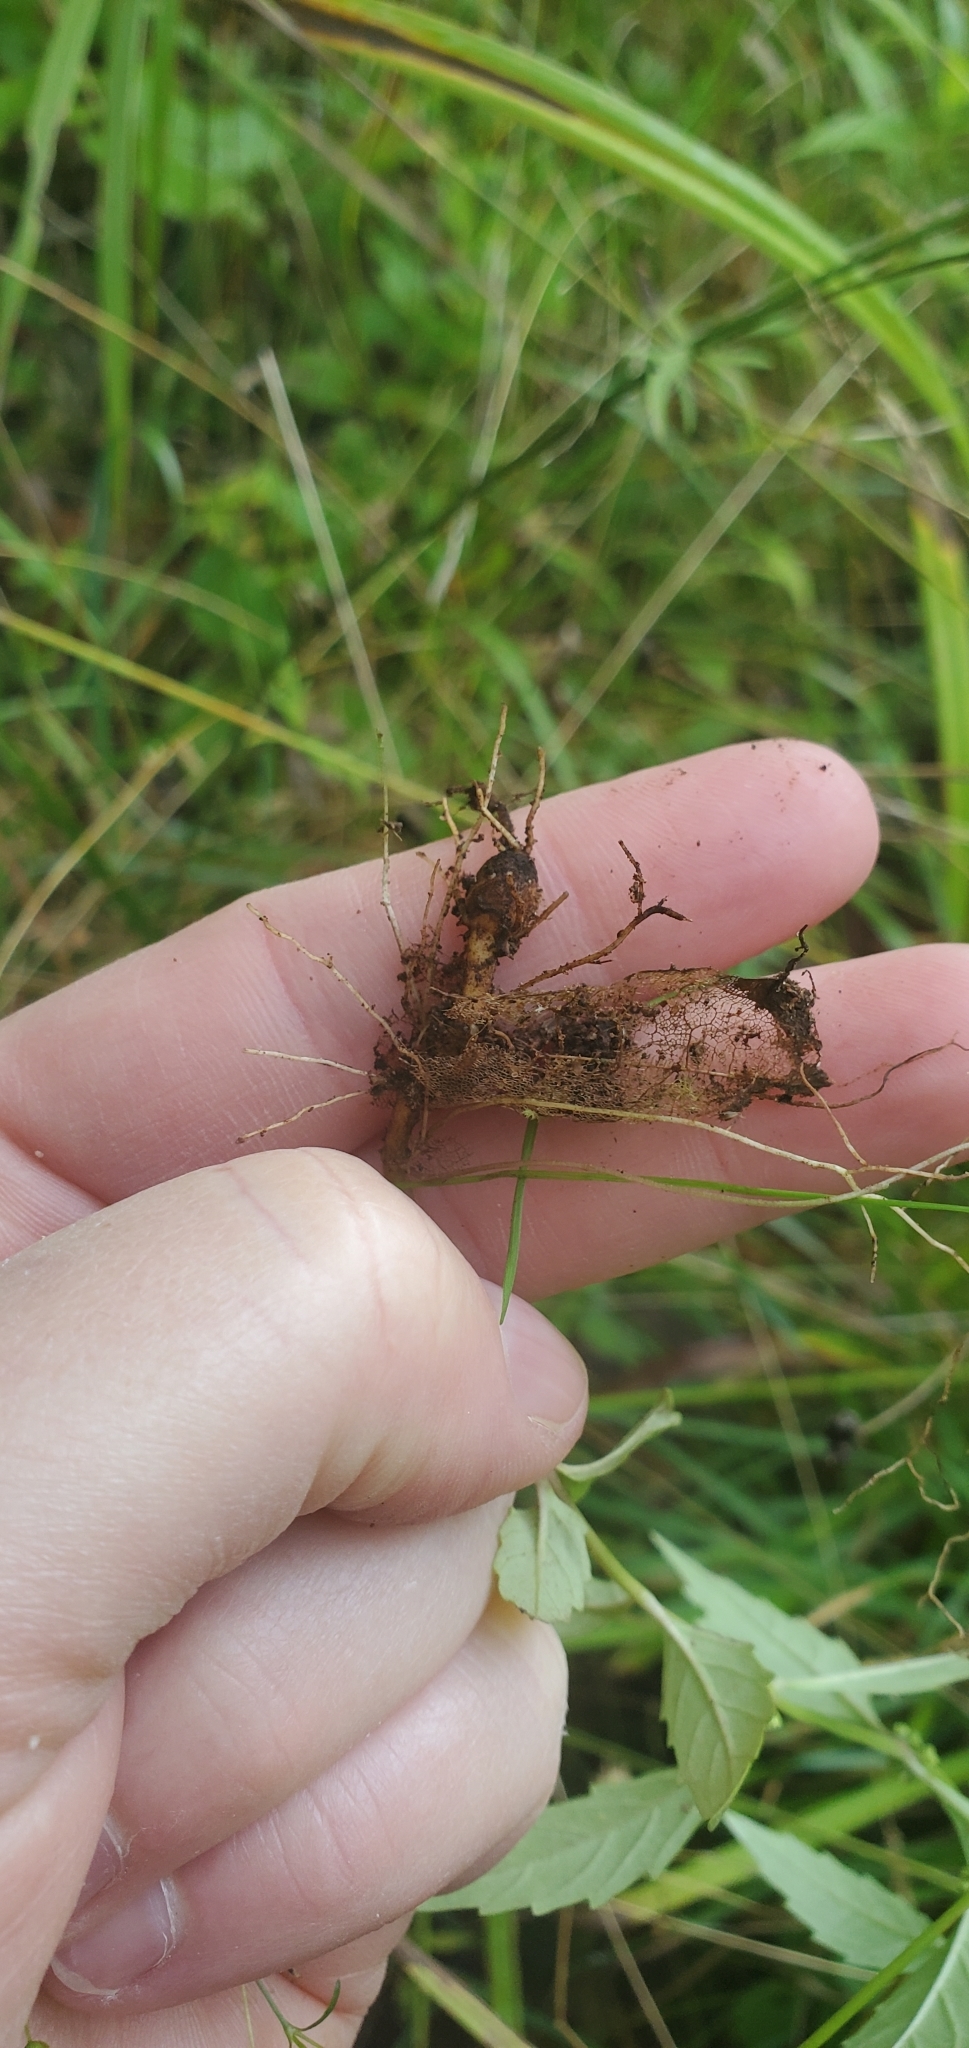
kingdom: Plantae
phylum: Tracheophyta
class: Magnoliopsida
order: Lamiales
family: Lamiaceae
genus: Lycopus
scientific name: Lycopus uniflorus
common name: Northern bugleweed
